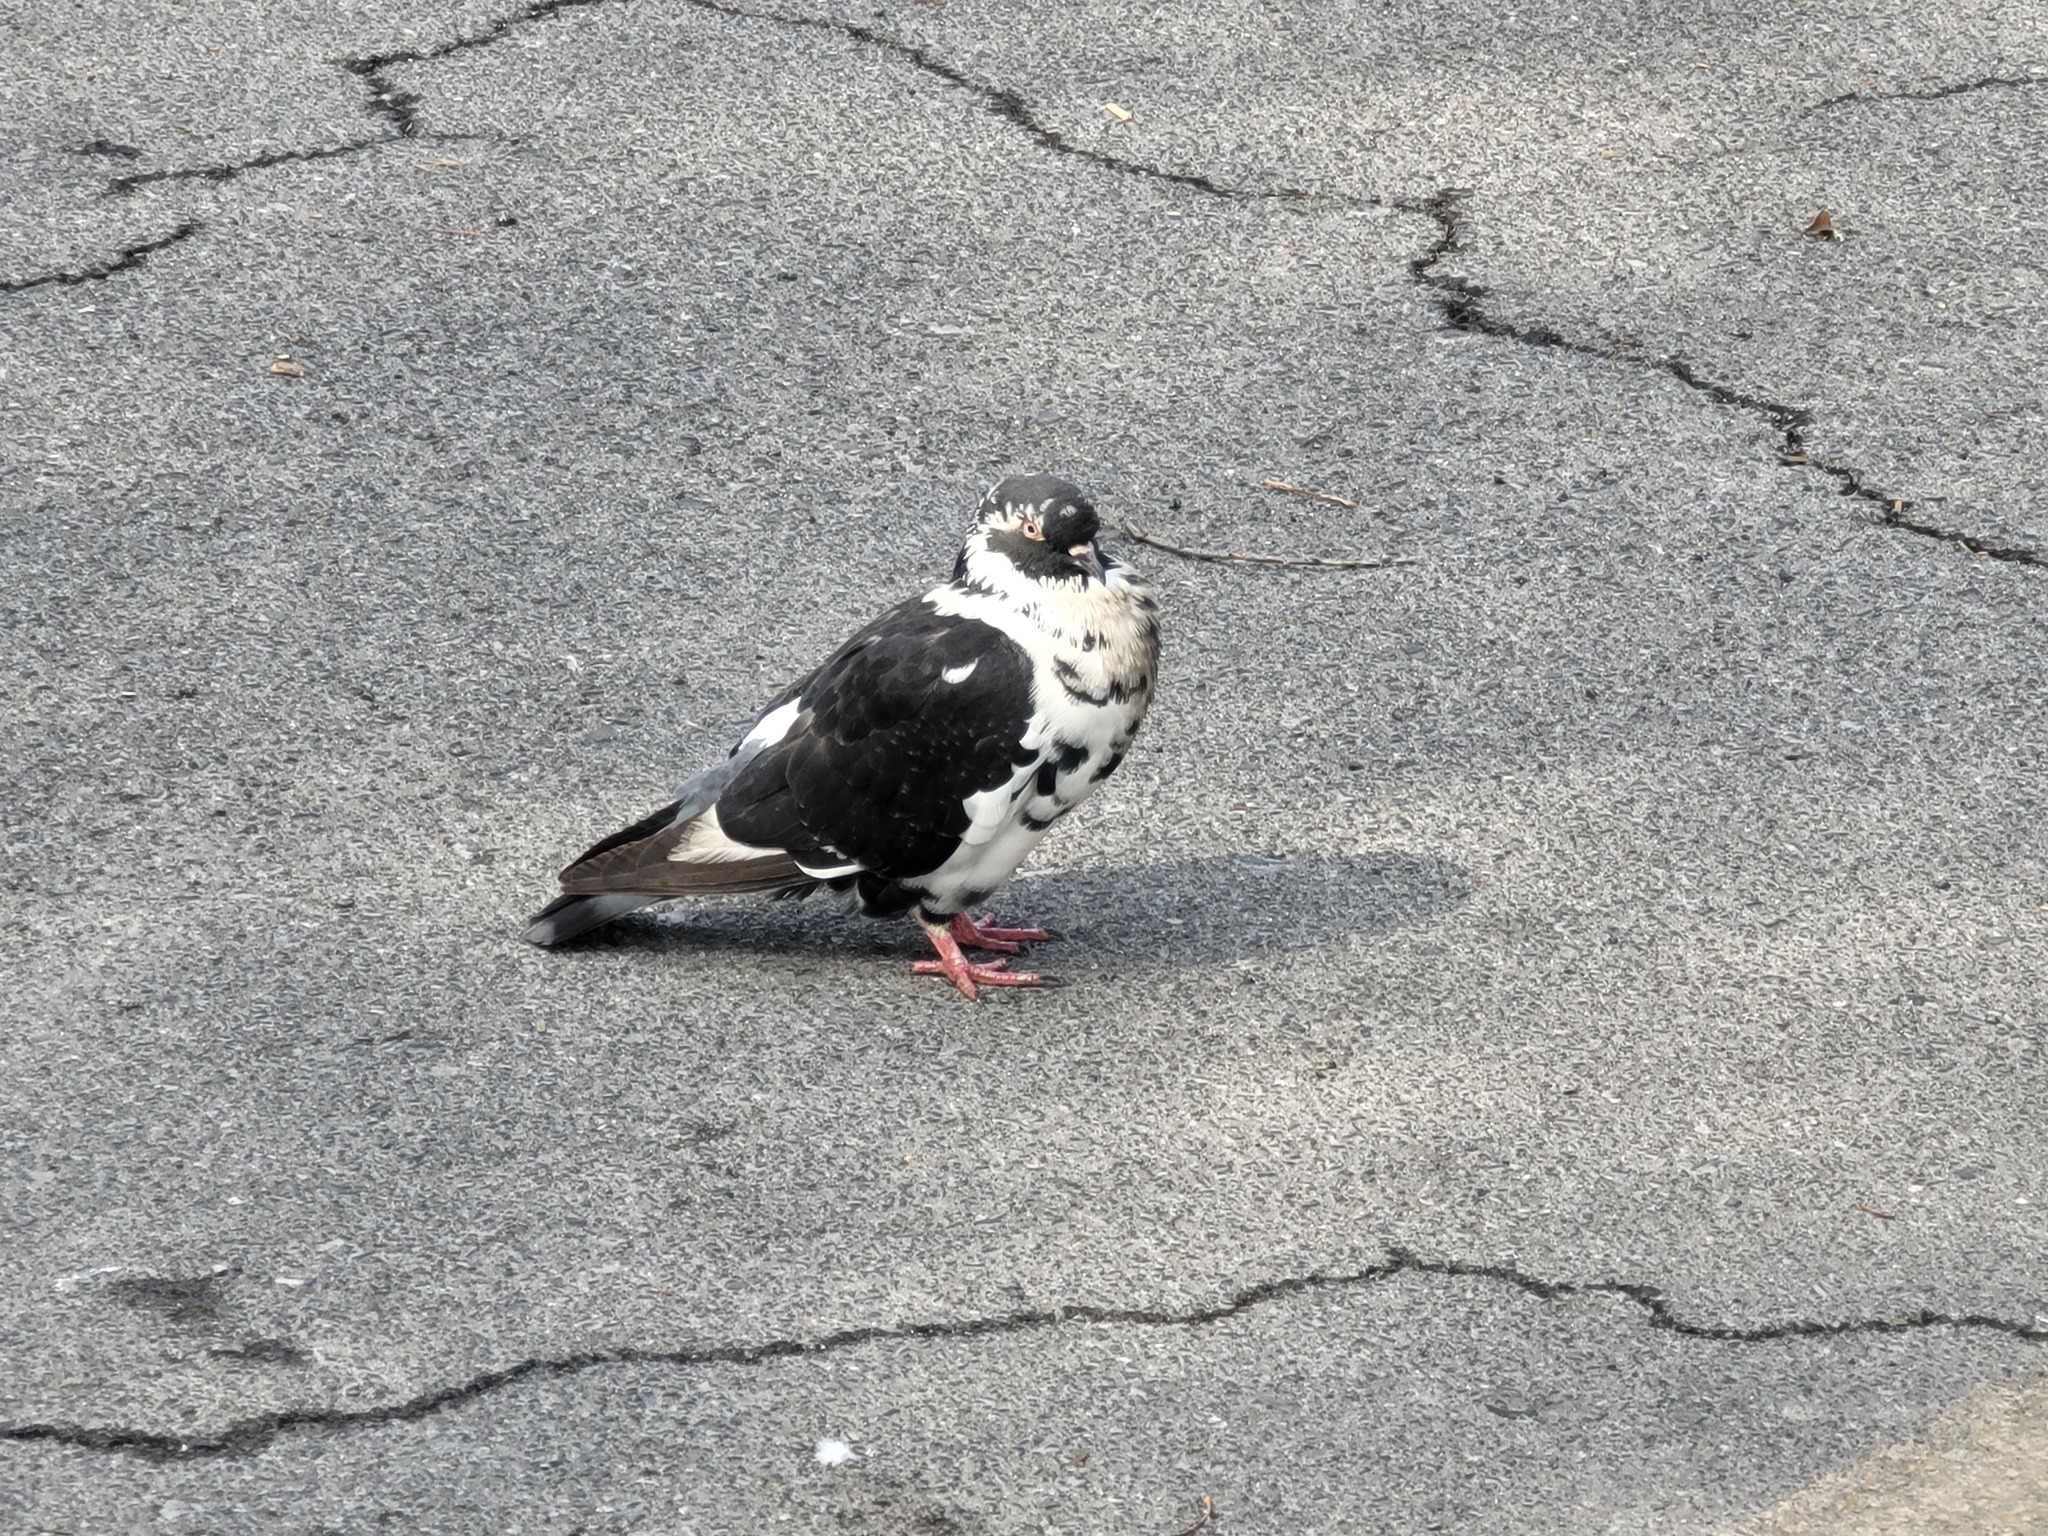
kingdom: Animalia
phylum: Chordata
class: Aves
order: Columbiformes
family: Columbidae
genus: Columba
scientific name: Columba livia
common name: Rock pigeon
